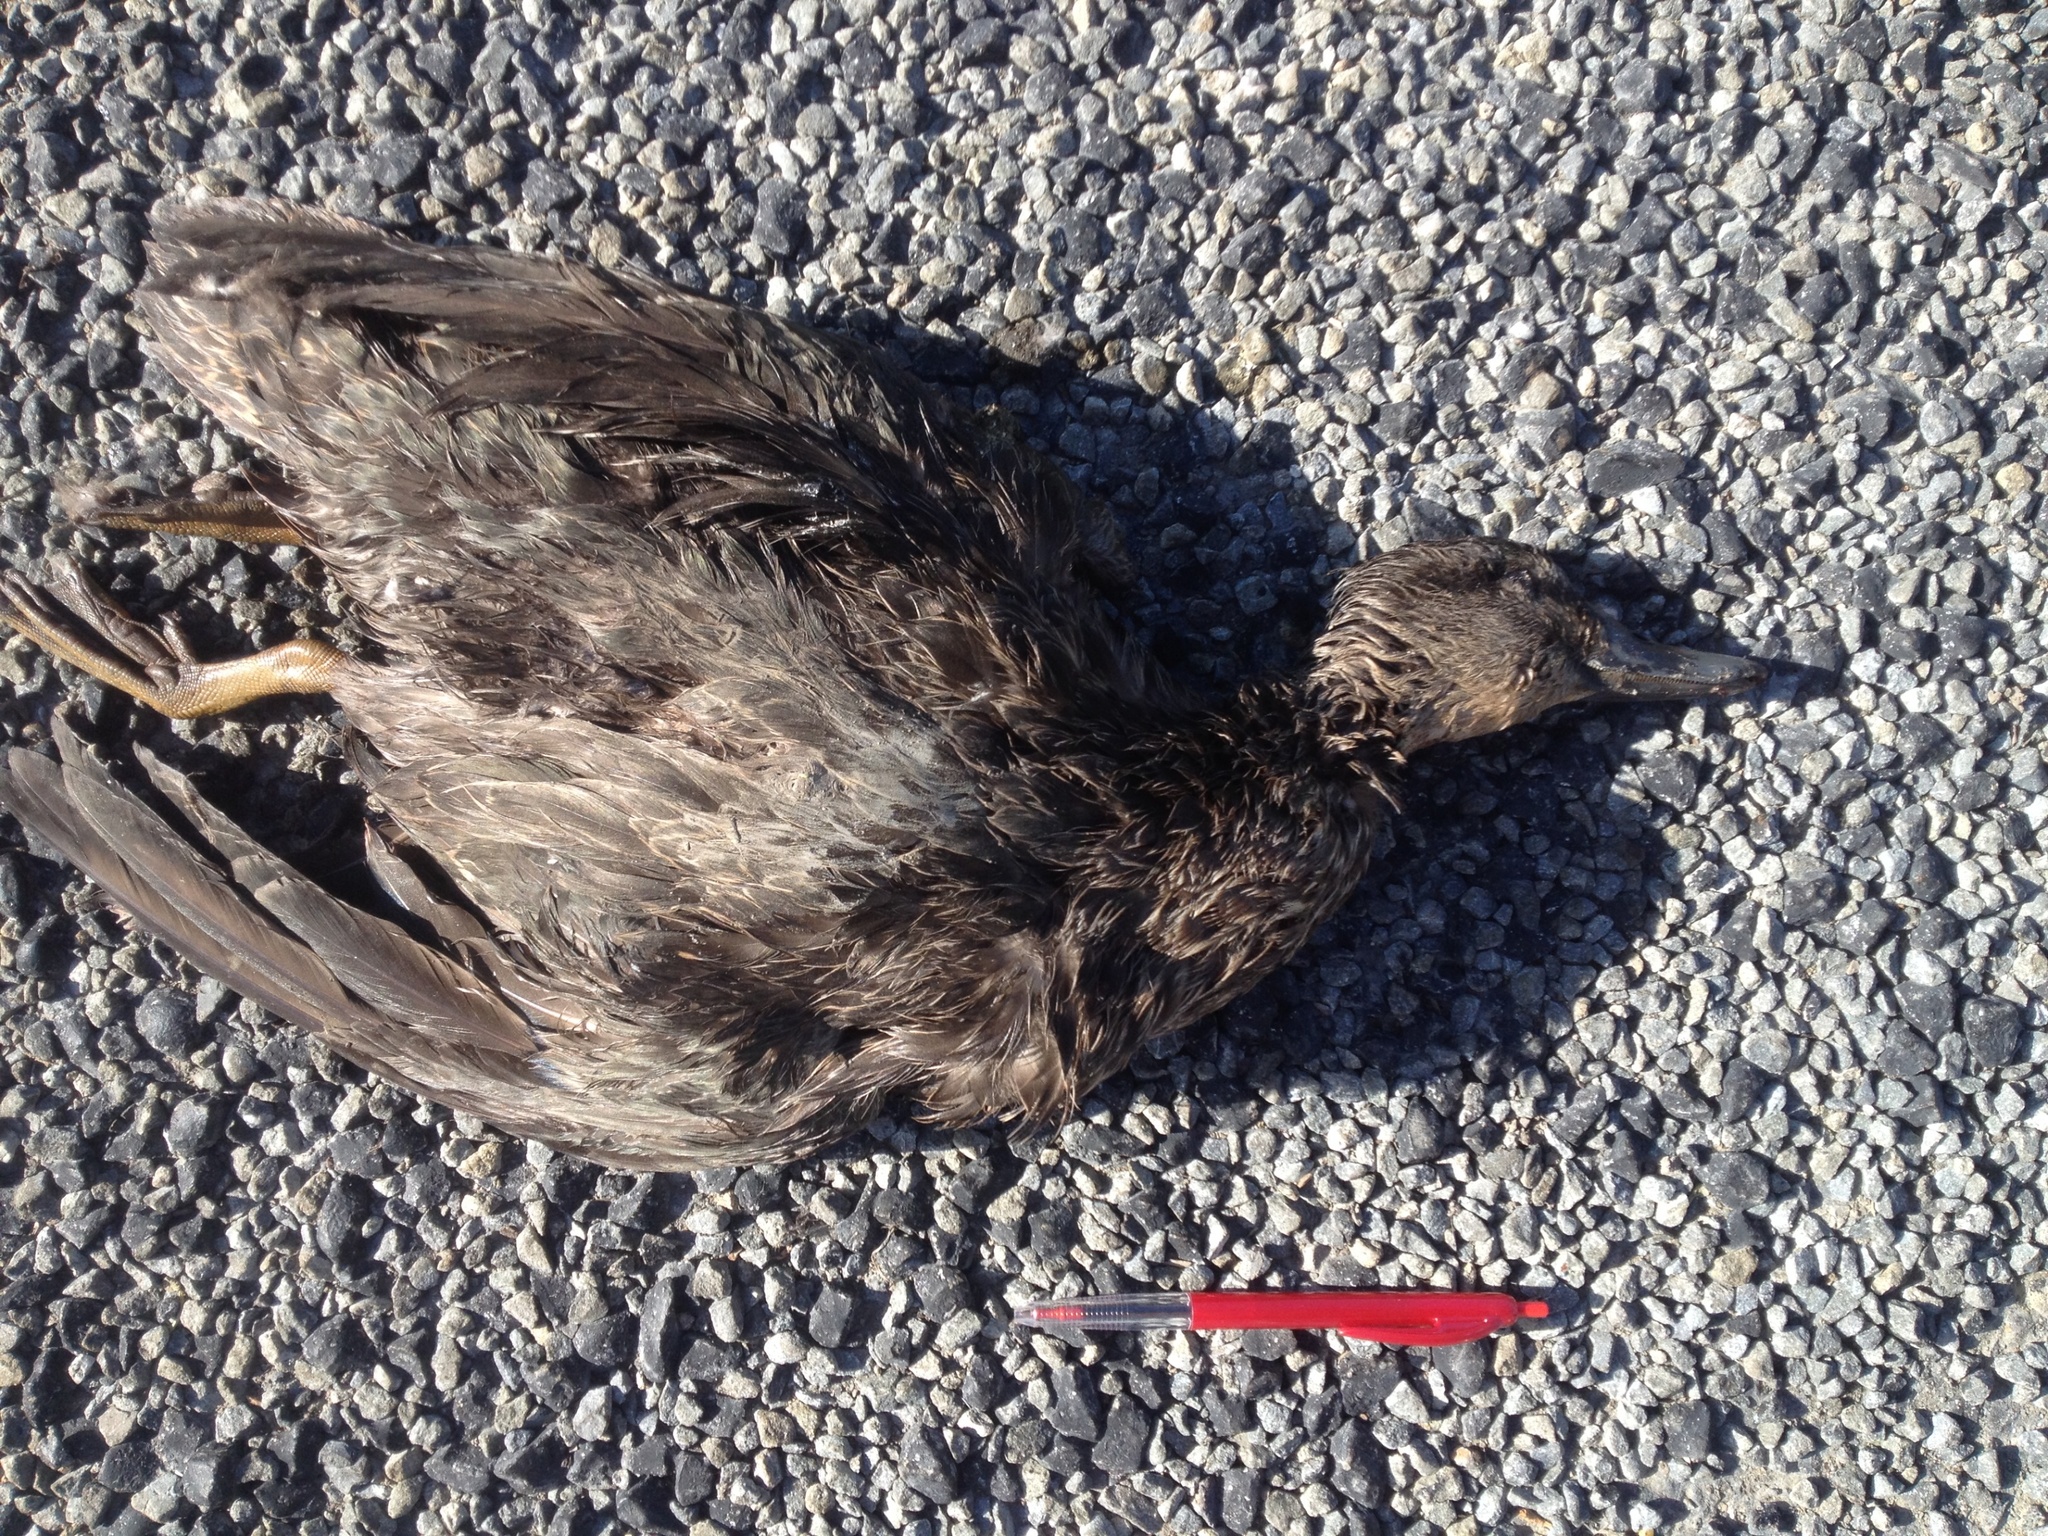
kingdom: Animalia
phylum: Chordata
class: Aves
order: Anseriformes
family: Anatidae
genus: Anas
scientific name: Anas platyrhynchos
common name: Mallard
